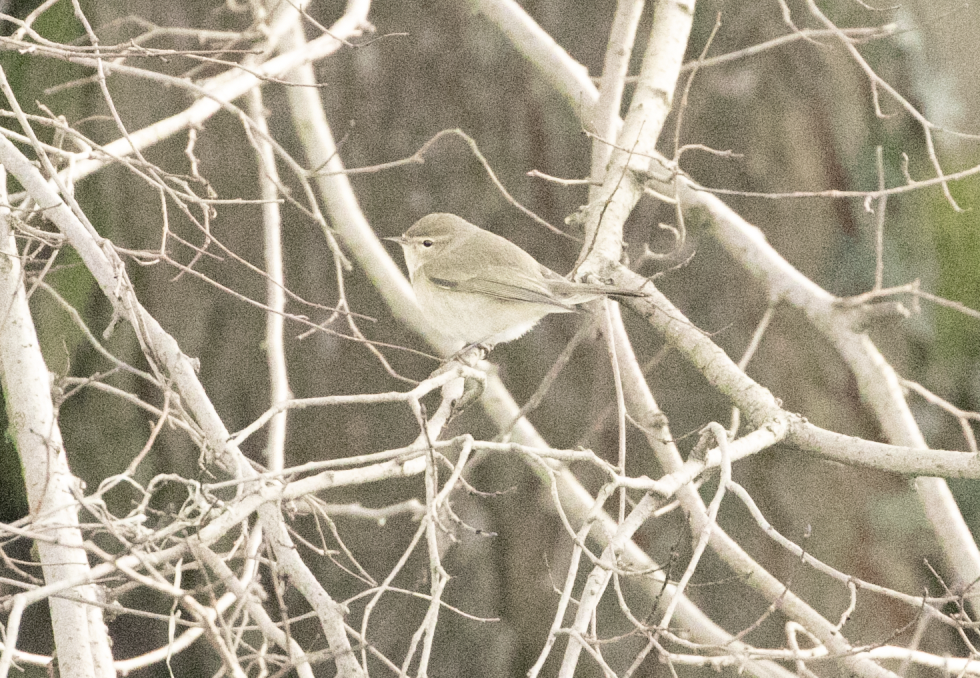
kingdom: Animalia
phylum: Chordata
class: Aves
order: Passeriformes
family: Phylloscopidae
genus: Phylloscopus
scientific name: Phylloscopus collybita
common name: Common chiffchaff
